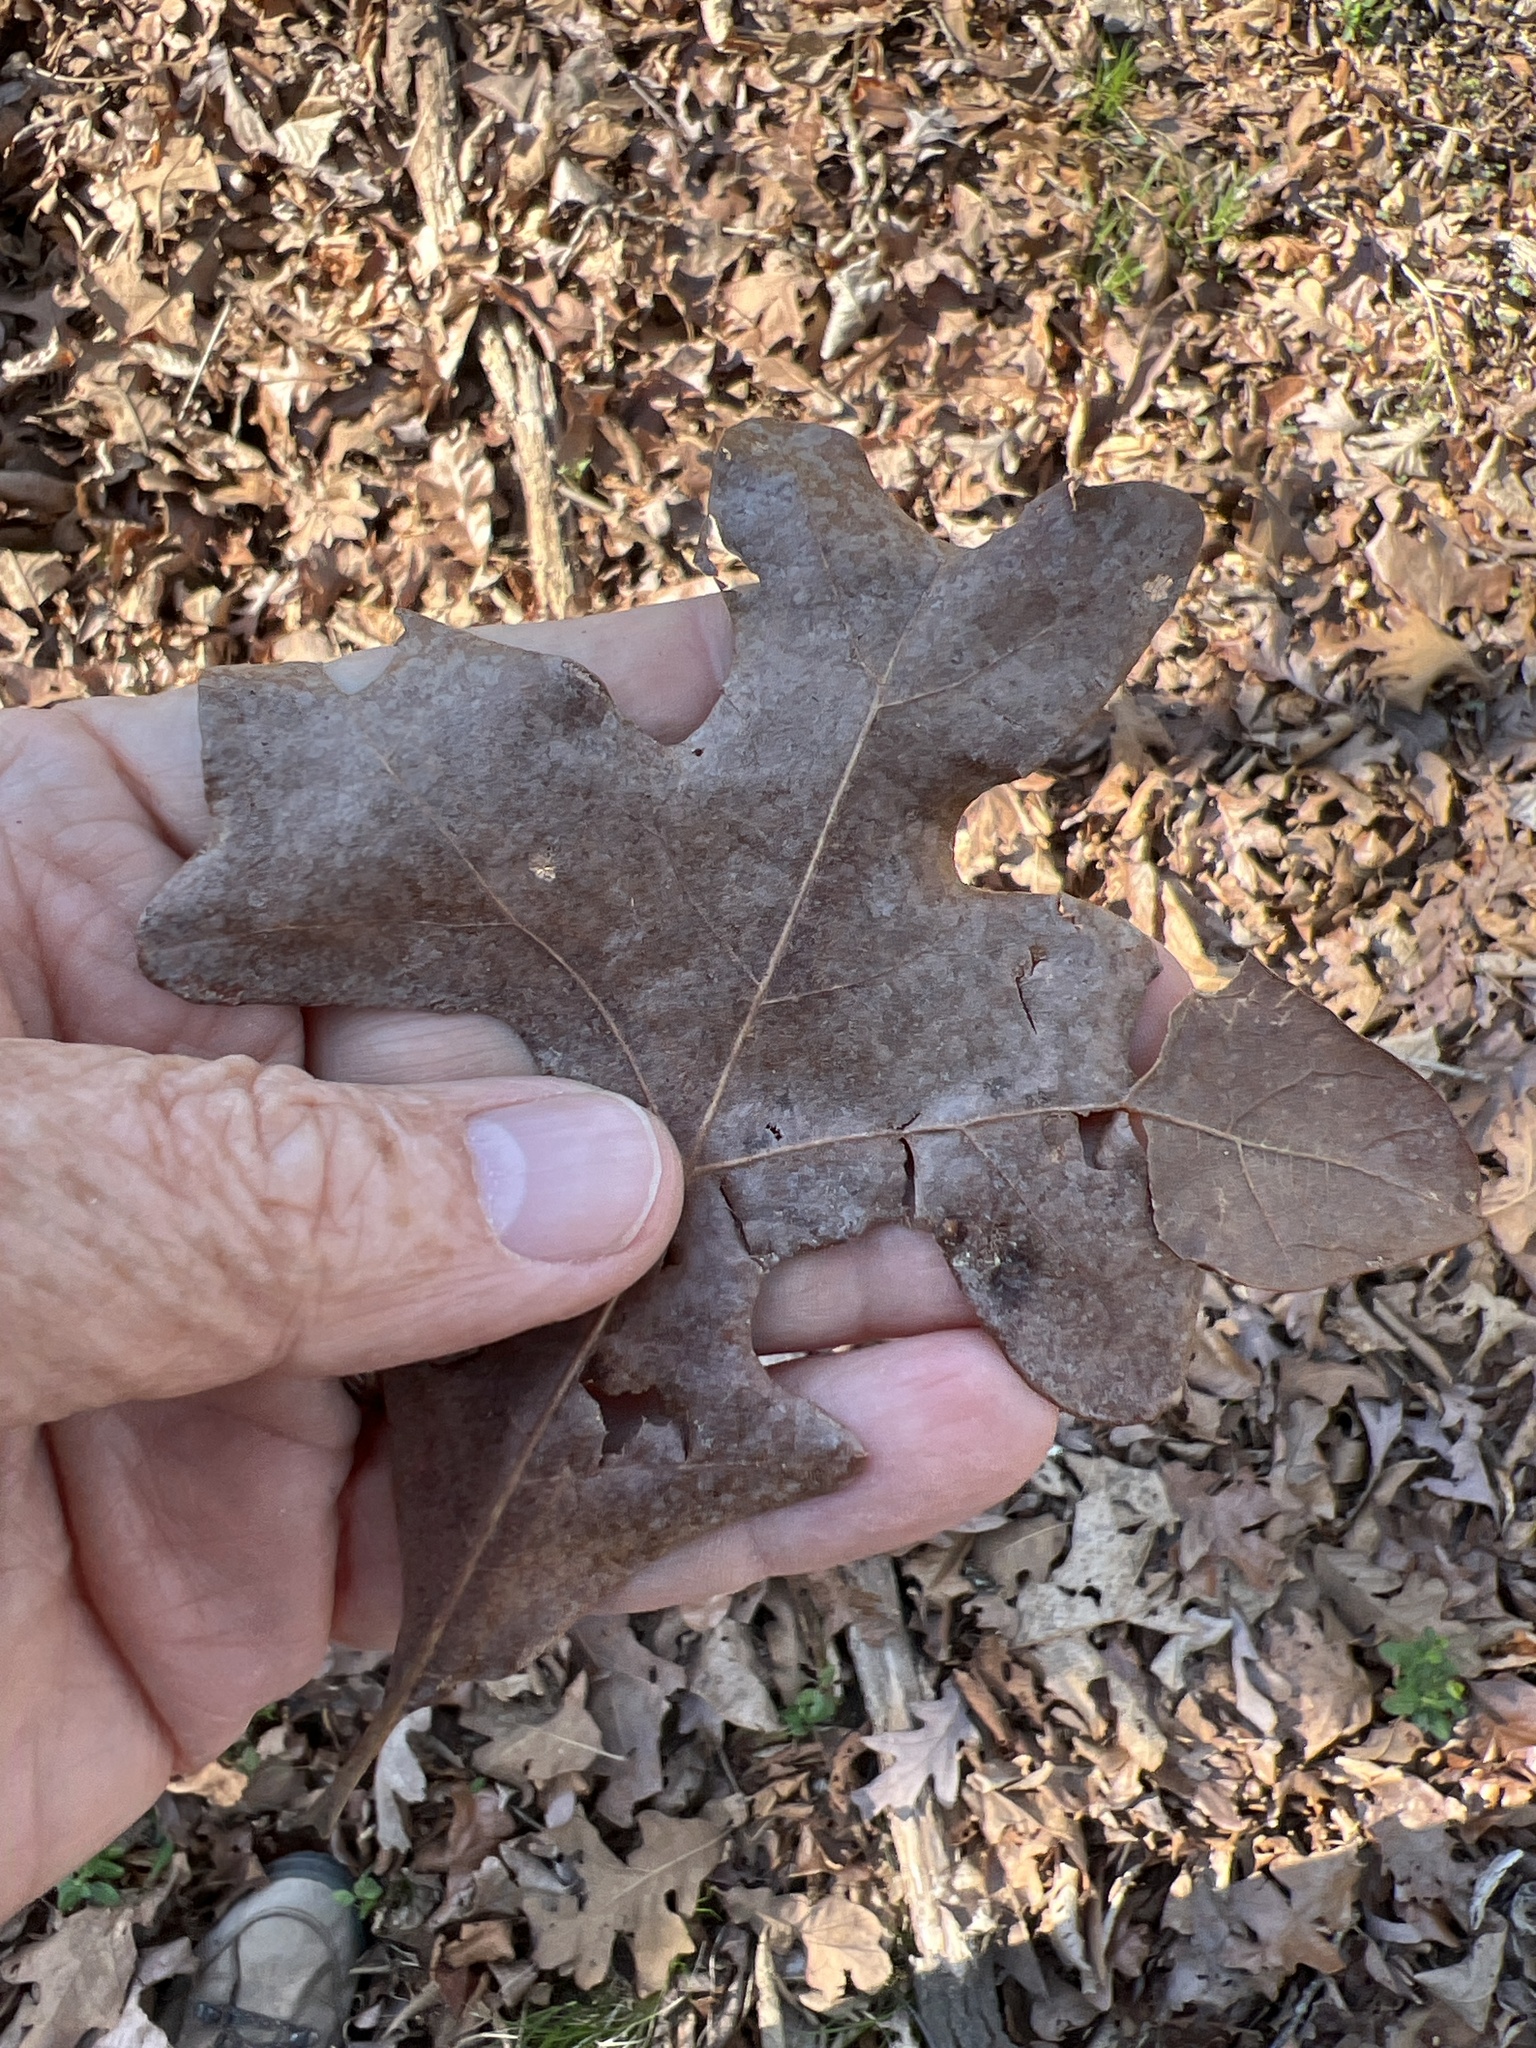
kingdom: Plantae
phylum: Tracheophyta
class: Magnoliopsida
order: Fagales
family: Fagaceae
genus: Quercus
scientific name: Quercus stellata
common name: Post oak
